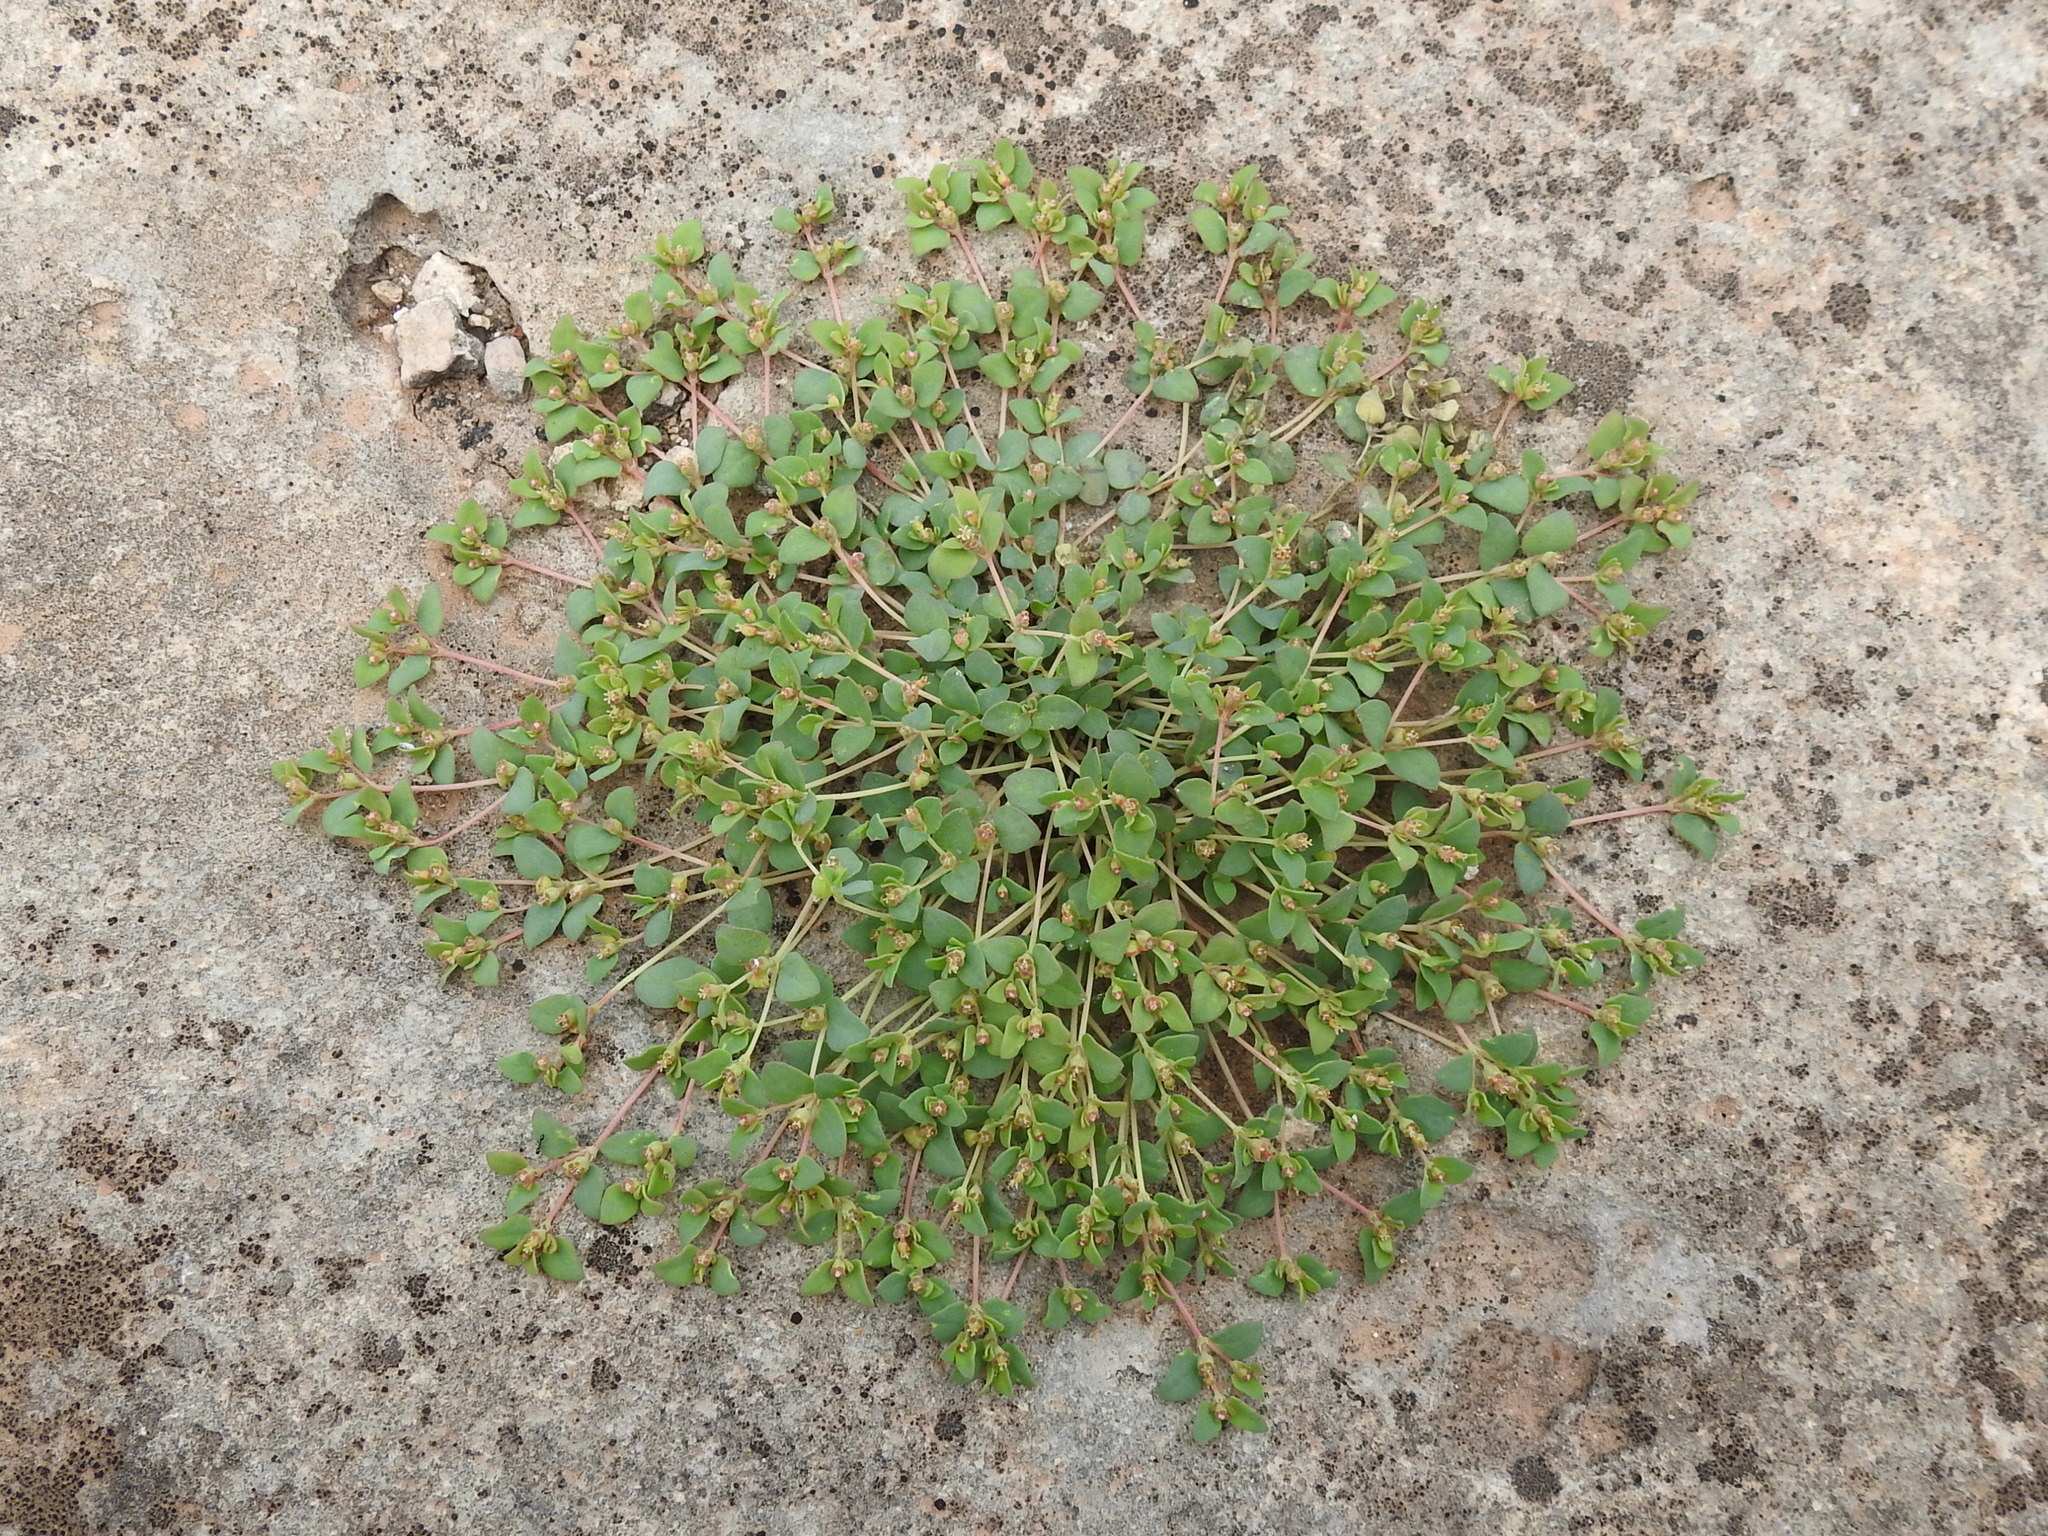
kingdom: Plantae
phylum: Tracheophyta
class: Magnoliopsida
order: Malpighiales
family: Euphorbiaceae
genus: Euphorbia
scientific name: Euphorbia fendleri
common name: Fendler's euphorbia
